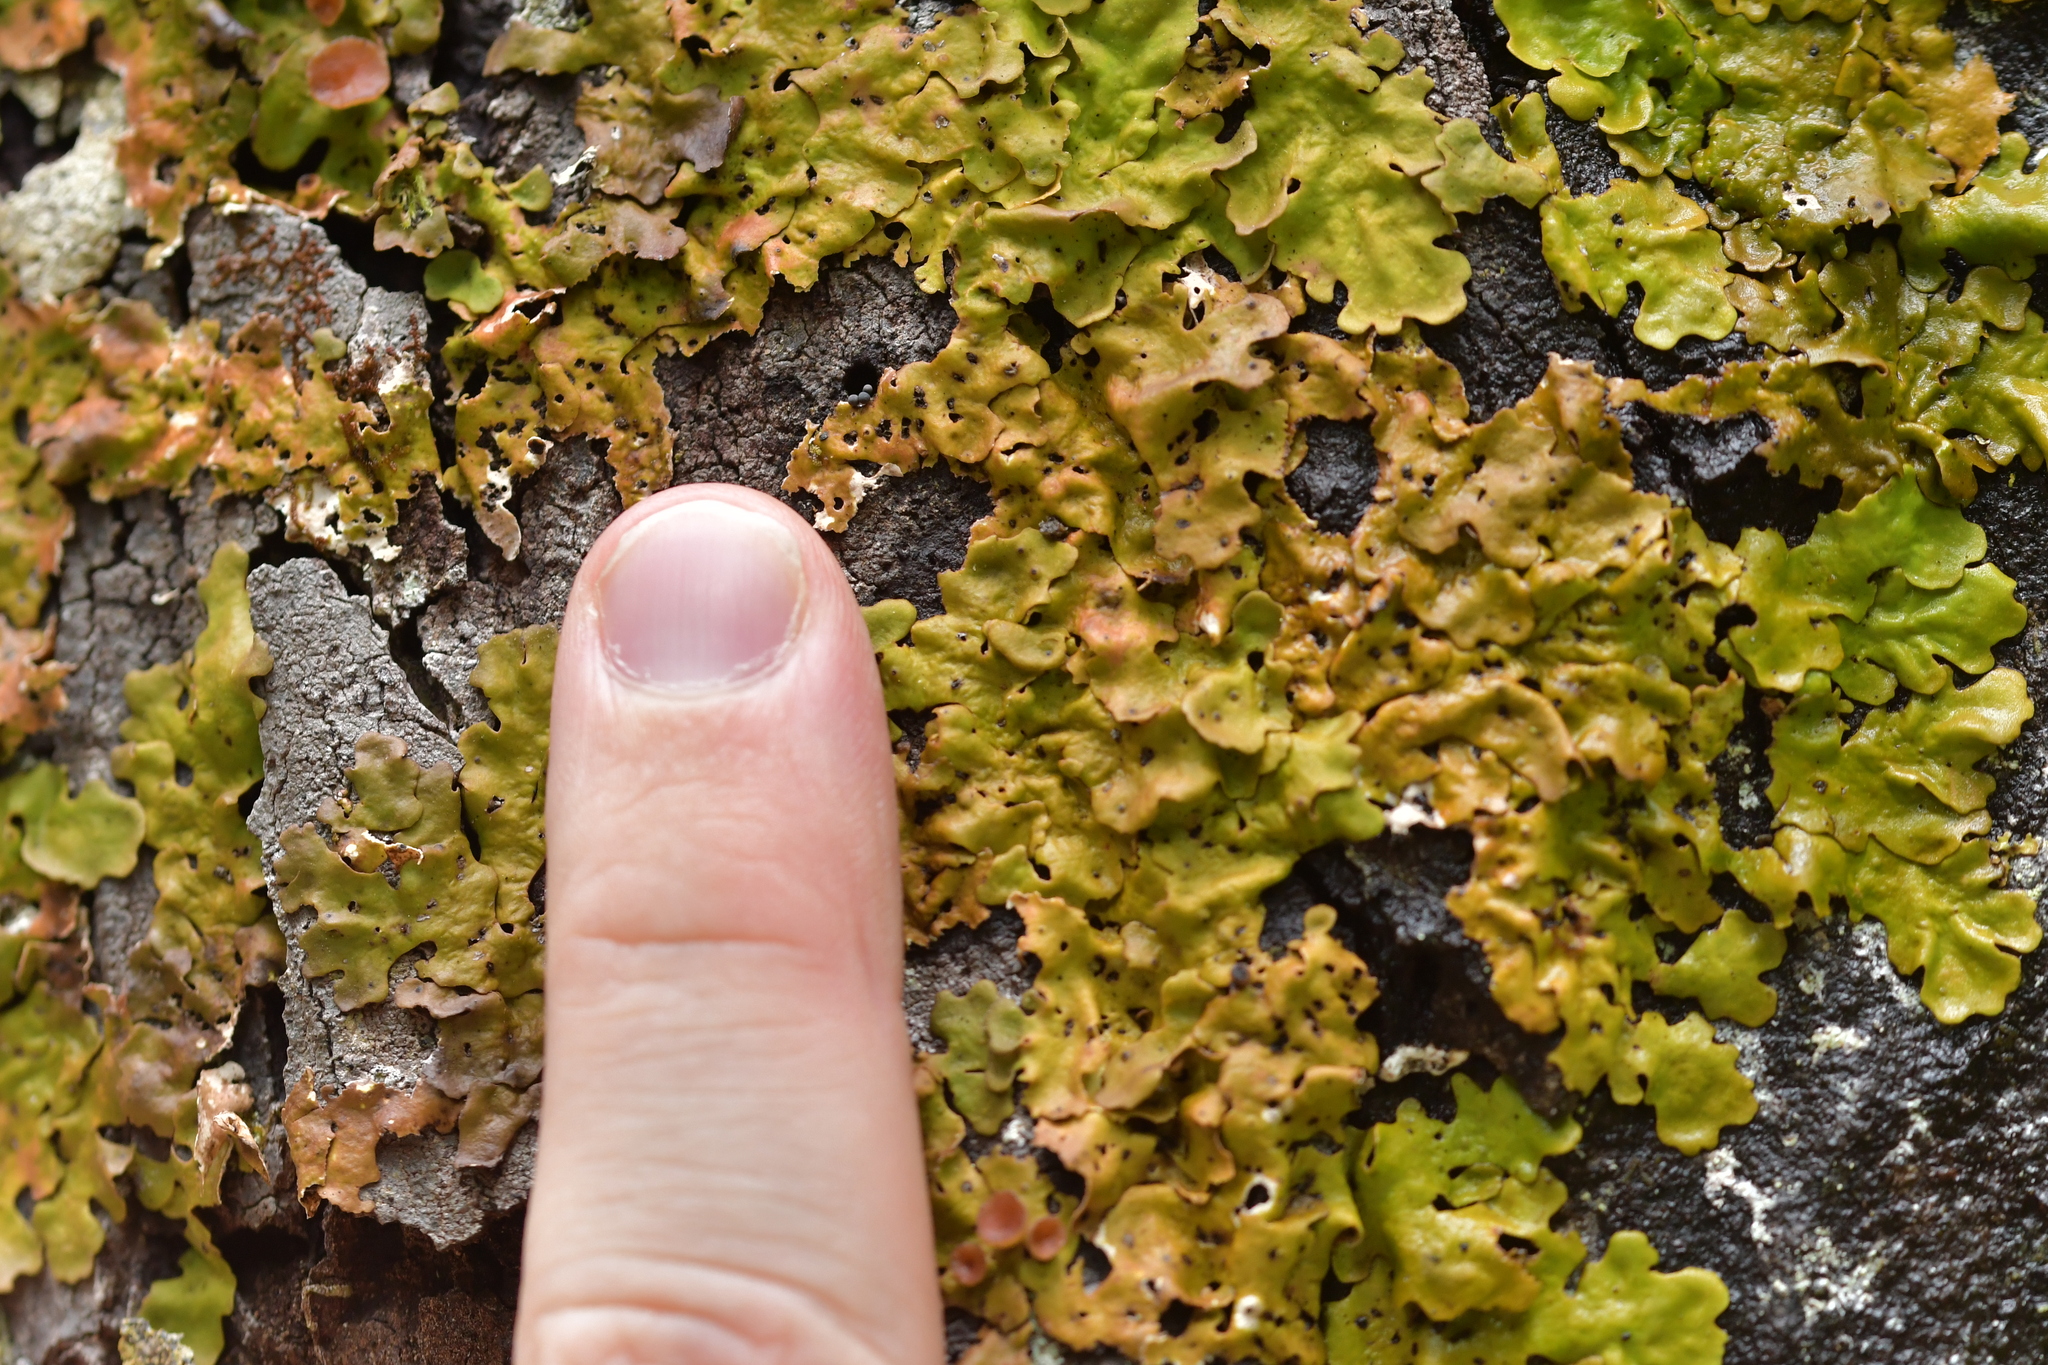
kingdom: Fungi
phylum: Ascomycota
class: Lecanoromycetes
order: Peltigerales
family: Lobariaceae
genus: Lobaria
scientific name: Lobaria adscripta
